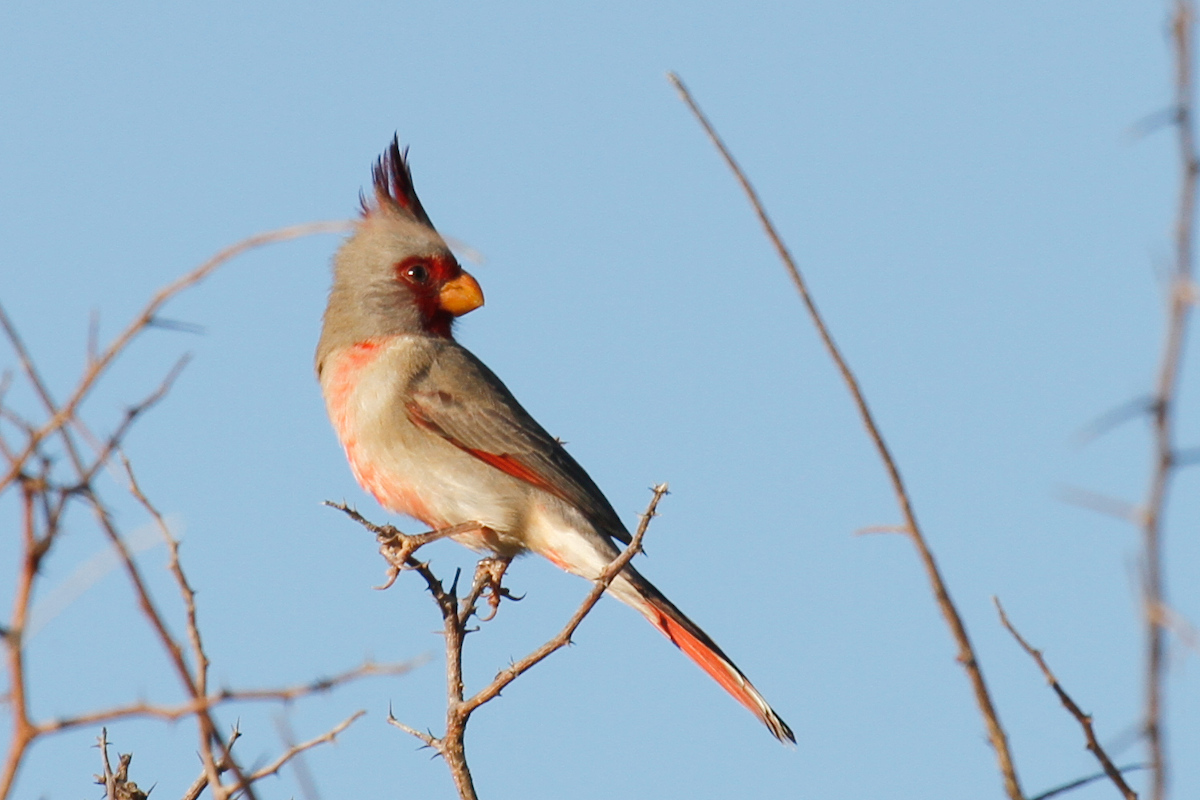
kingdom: Animalia
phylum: Chordata
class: Aves
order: Passeriformes
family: Cardinalidae
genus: Cardinalis
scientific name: Cardinalis sinuatus
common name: Pyrrhuloxia
